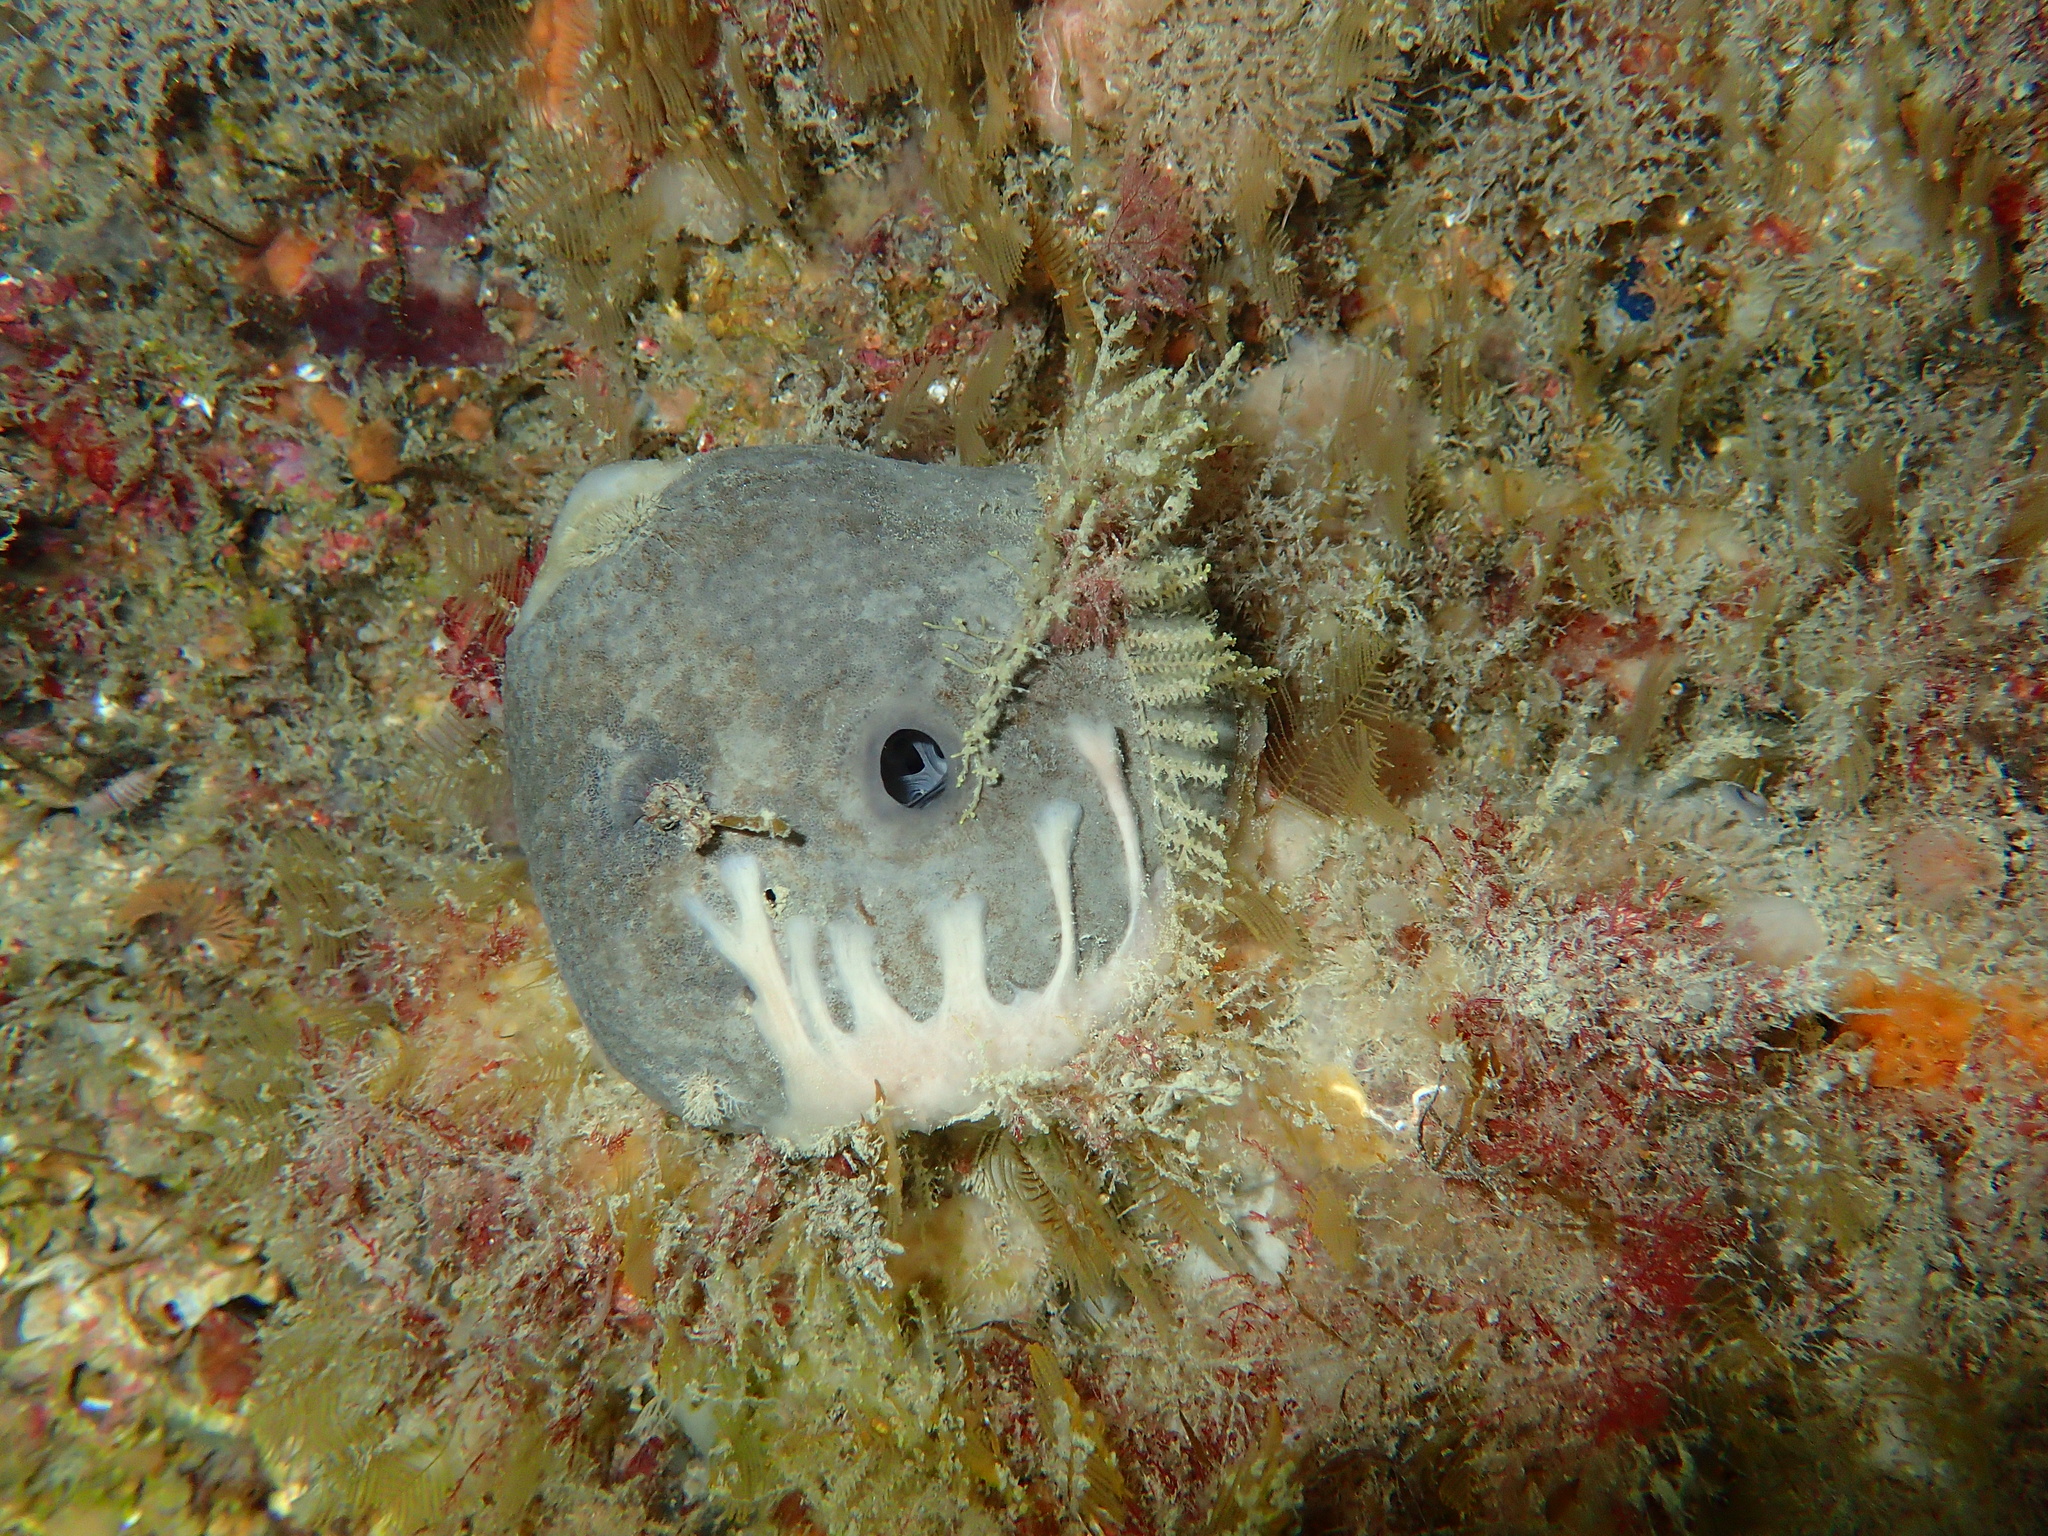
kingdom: Animalia
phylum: Porifera
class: Demospongiae
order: Dictyoceratida
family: Irciniidae
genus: Ircinia
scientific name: Ircinia oros
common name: Grey leather sponge
